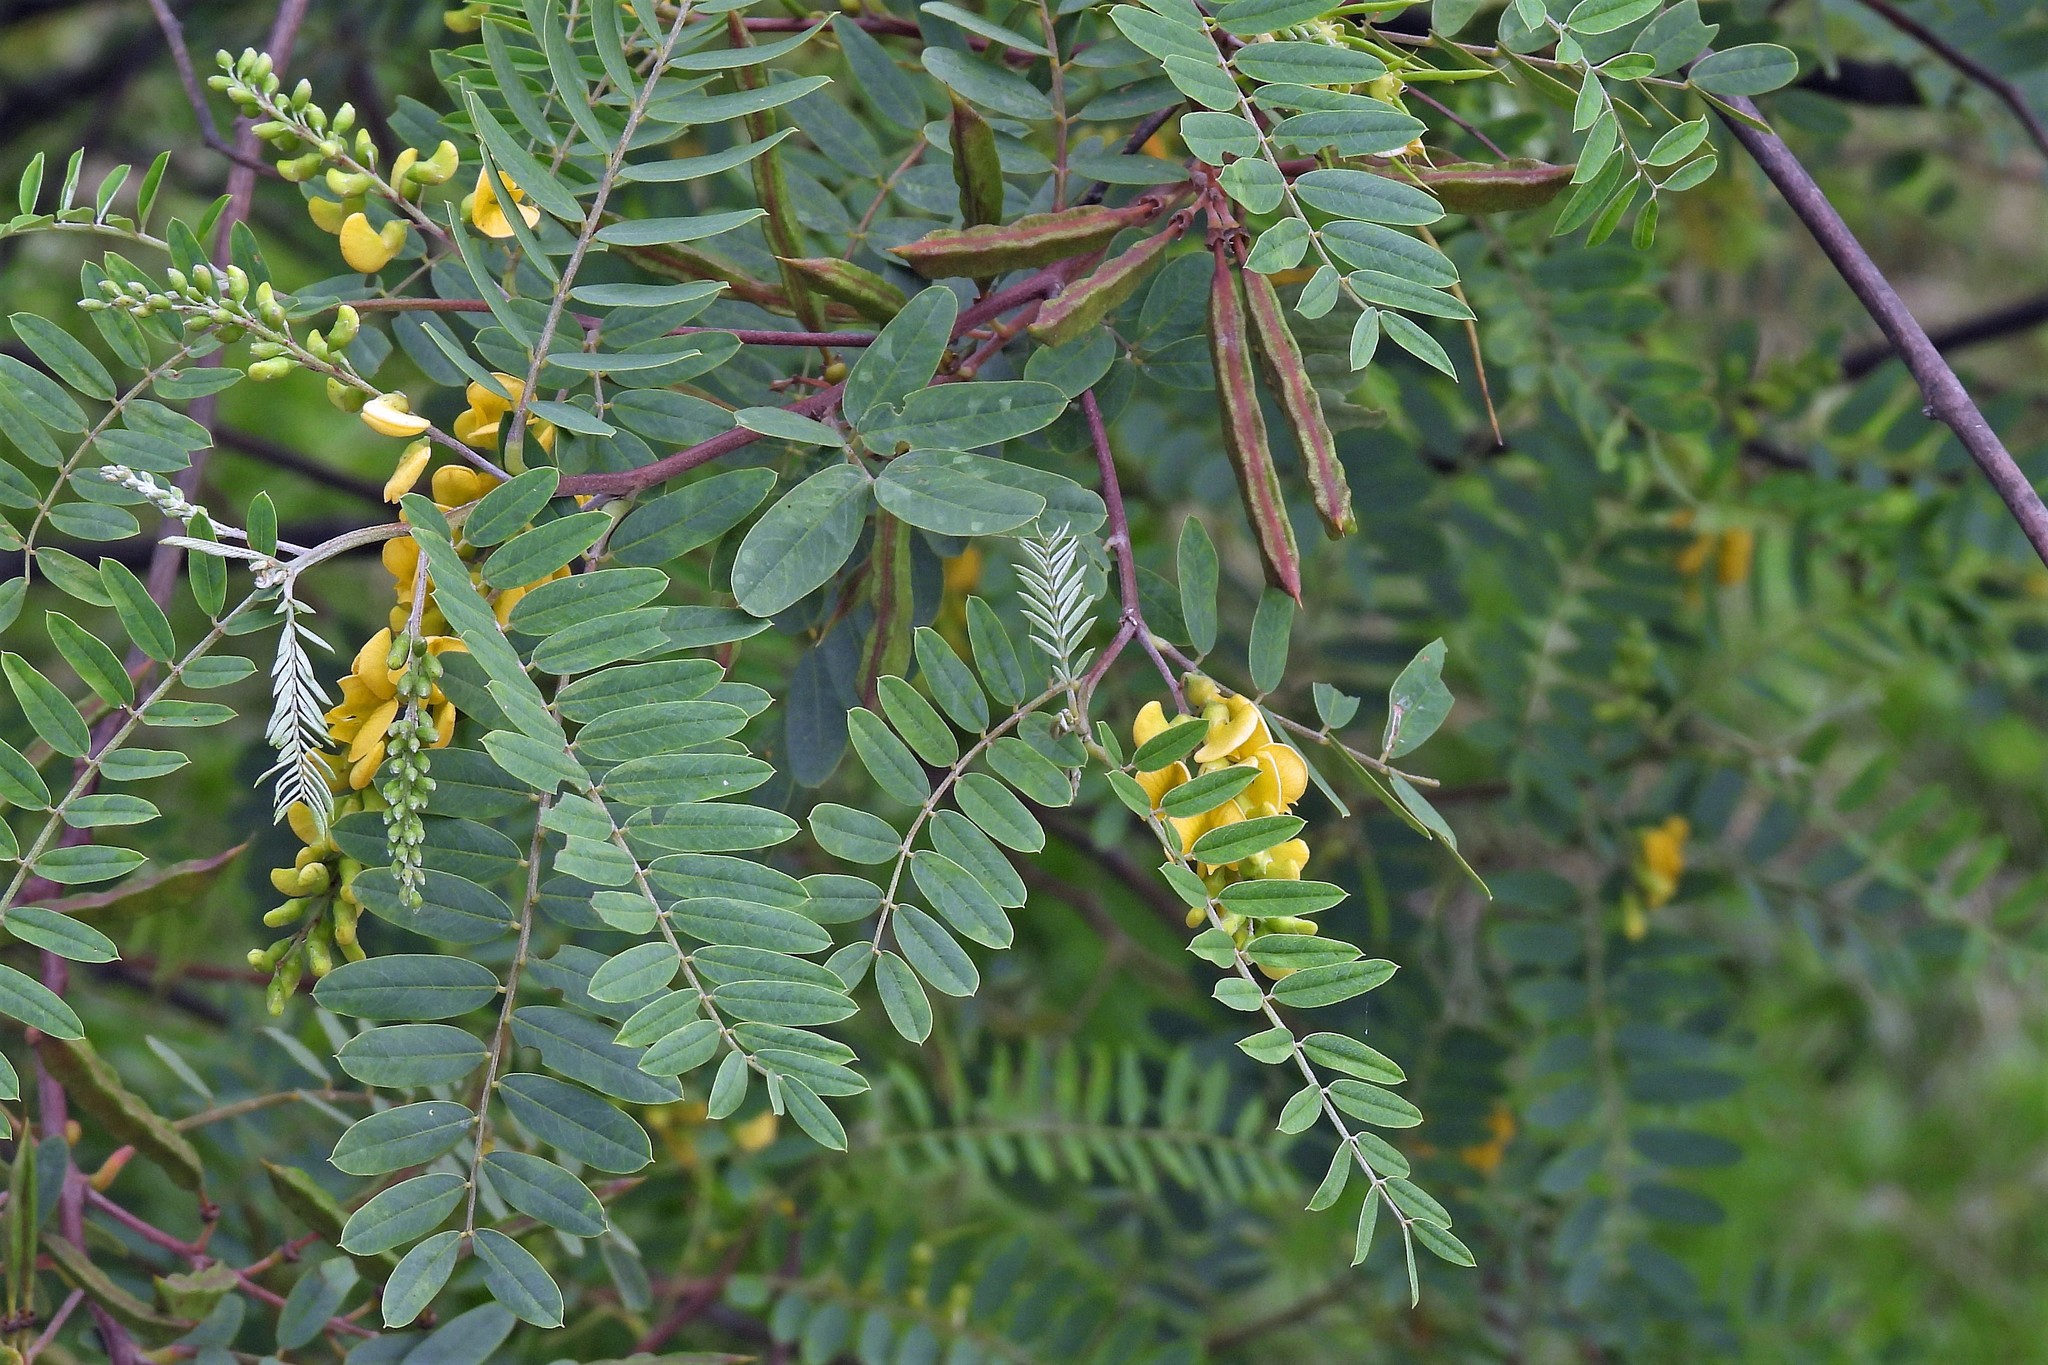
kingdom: Plantae
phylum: Tracheophyta
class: Magnoliopsida
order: Fabales
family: Fabaceae
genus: Sesbania
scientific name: Sesbania virgata
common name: Wand riverhemp
